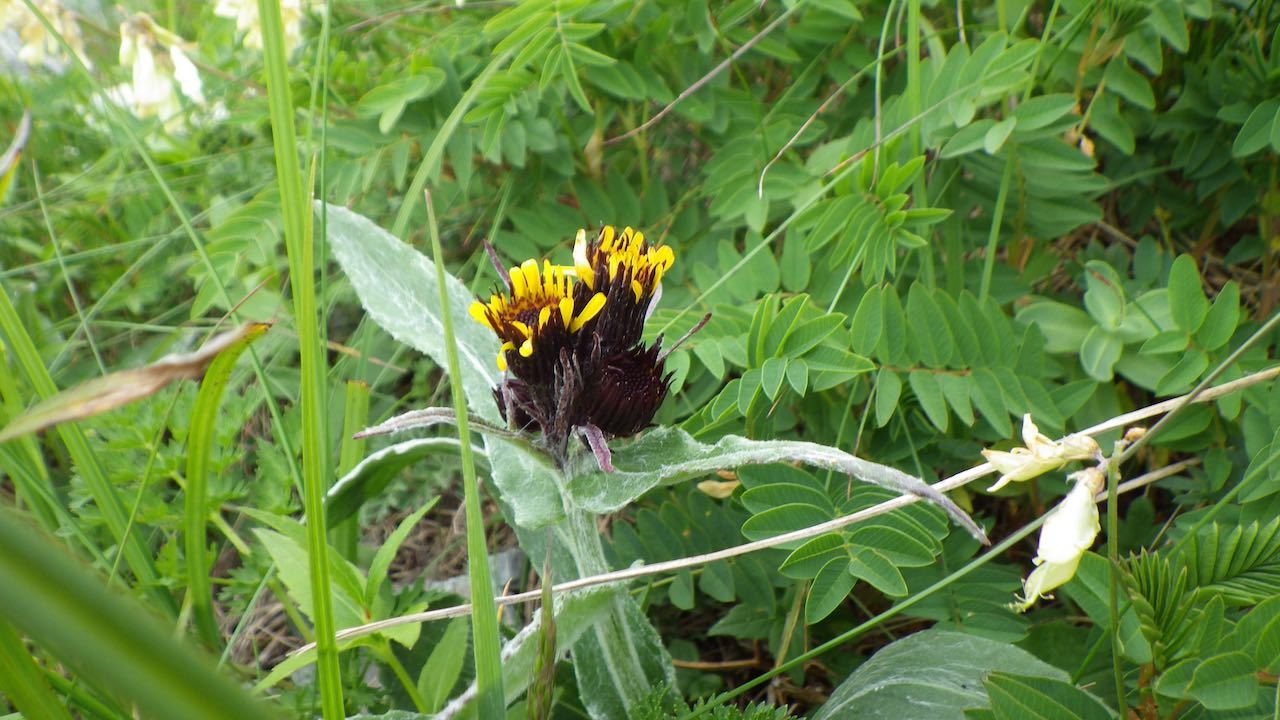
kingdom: Plantae
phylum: Tracheophyta
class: Magnoliopsida
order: Asterales
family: Asteraceae
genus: Tephroseris
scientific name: Tephroseris takedana
